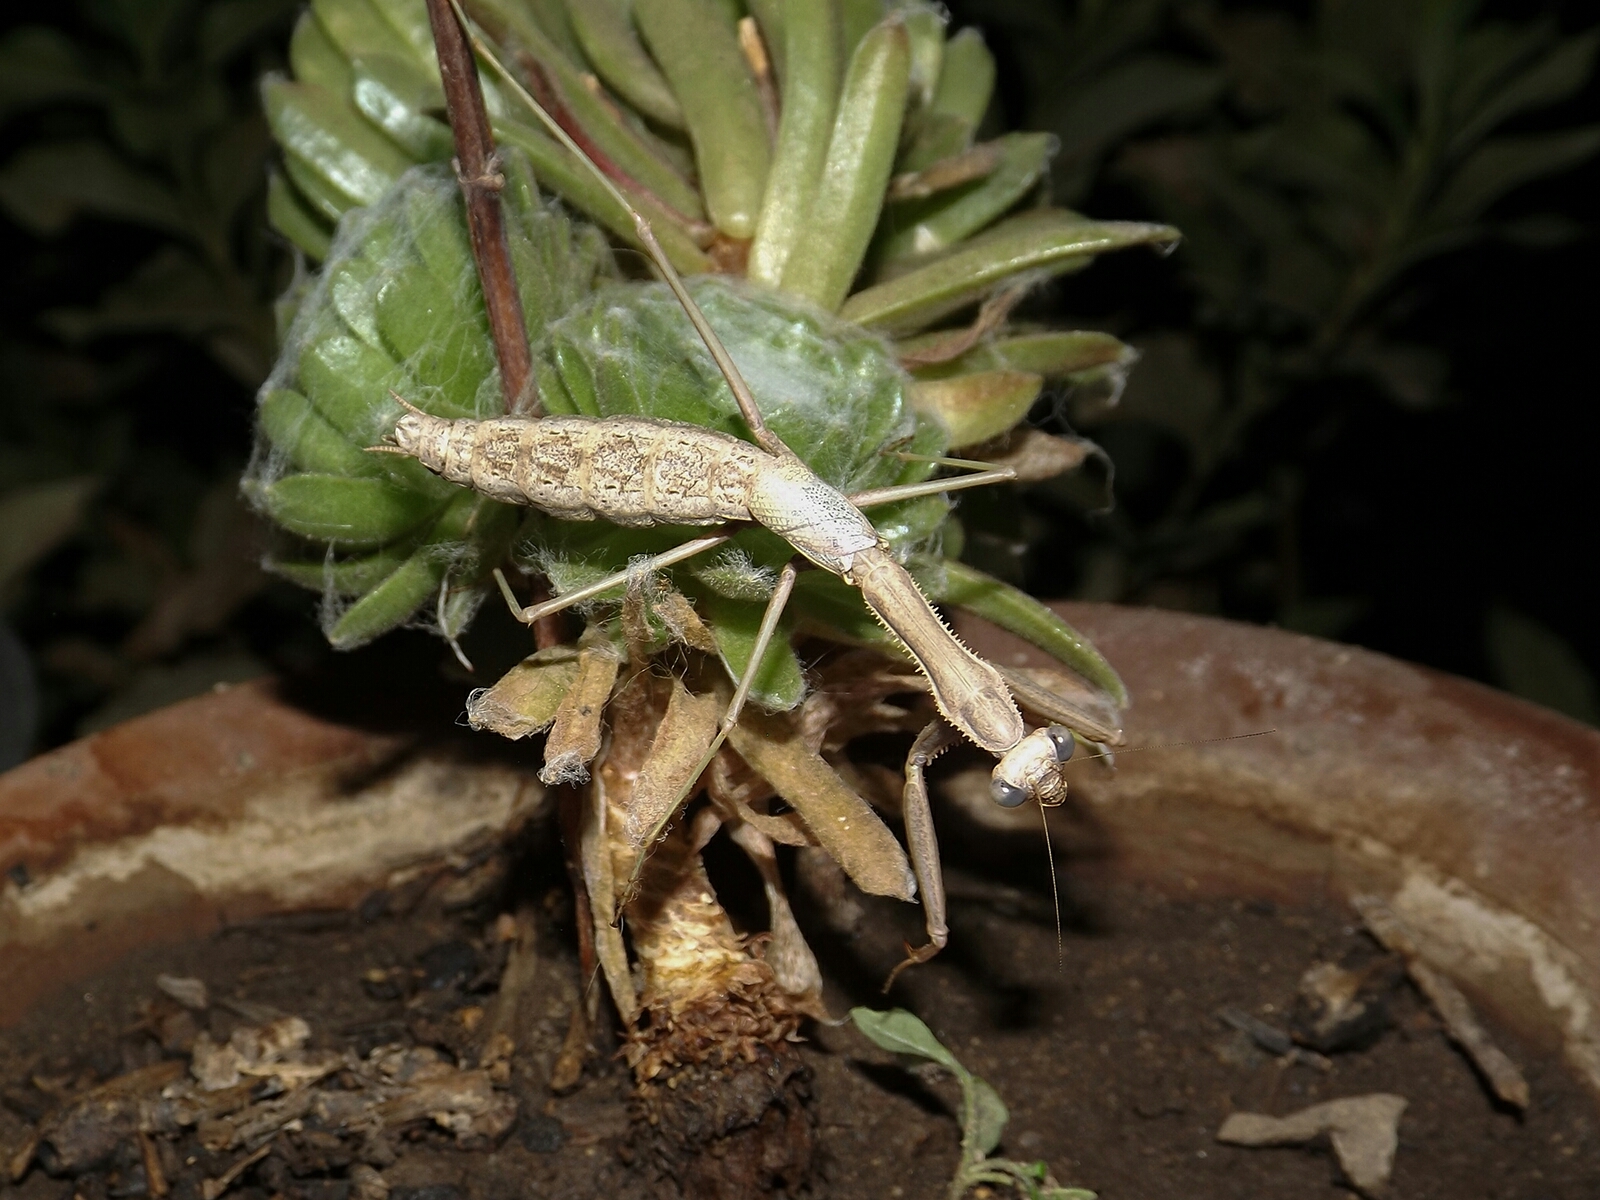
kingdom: Animalia
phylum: Arthropoda
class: Insecta
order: Mantodea
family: Coptopterygidae
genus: Coptopteryx
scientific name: Coptopteryx gayi
